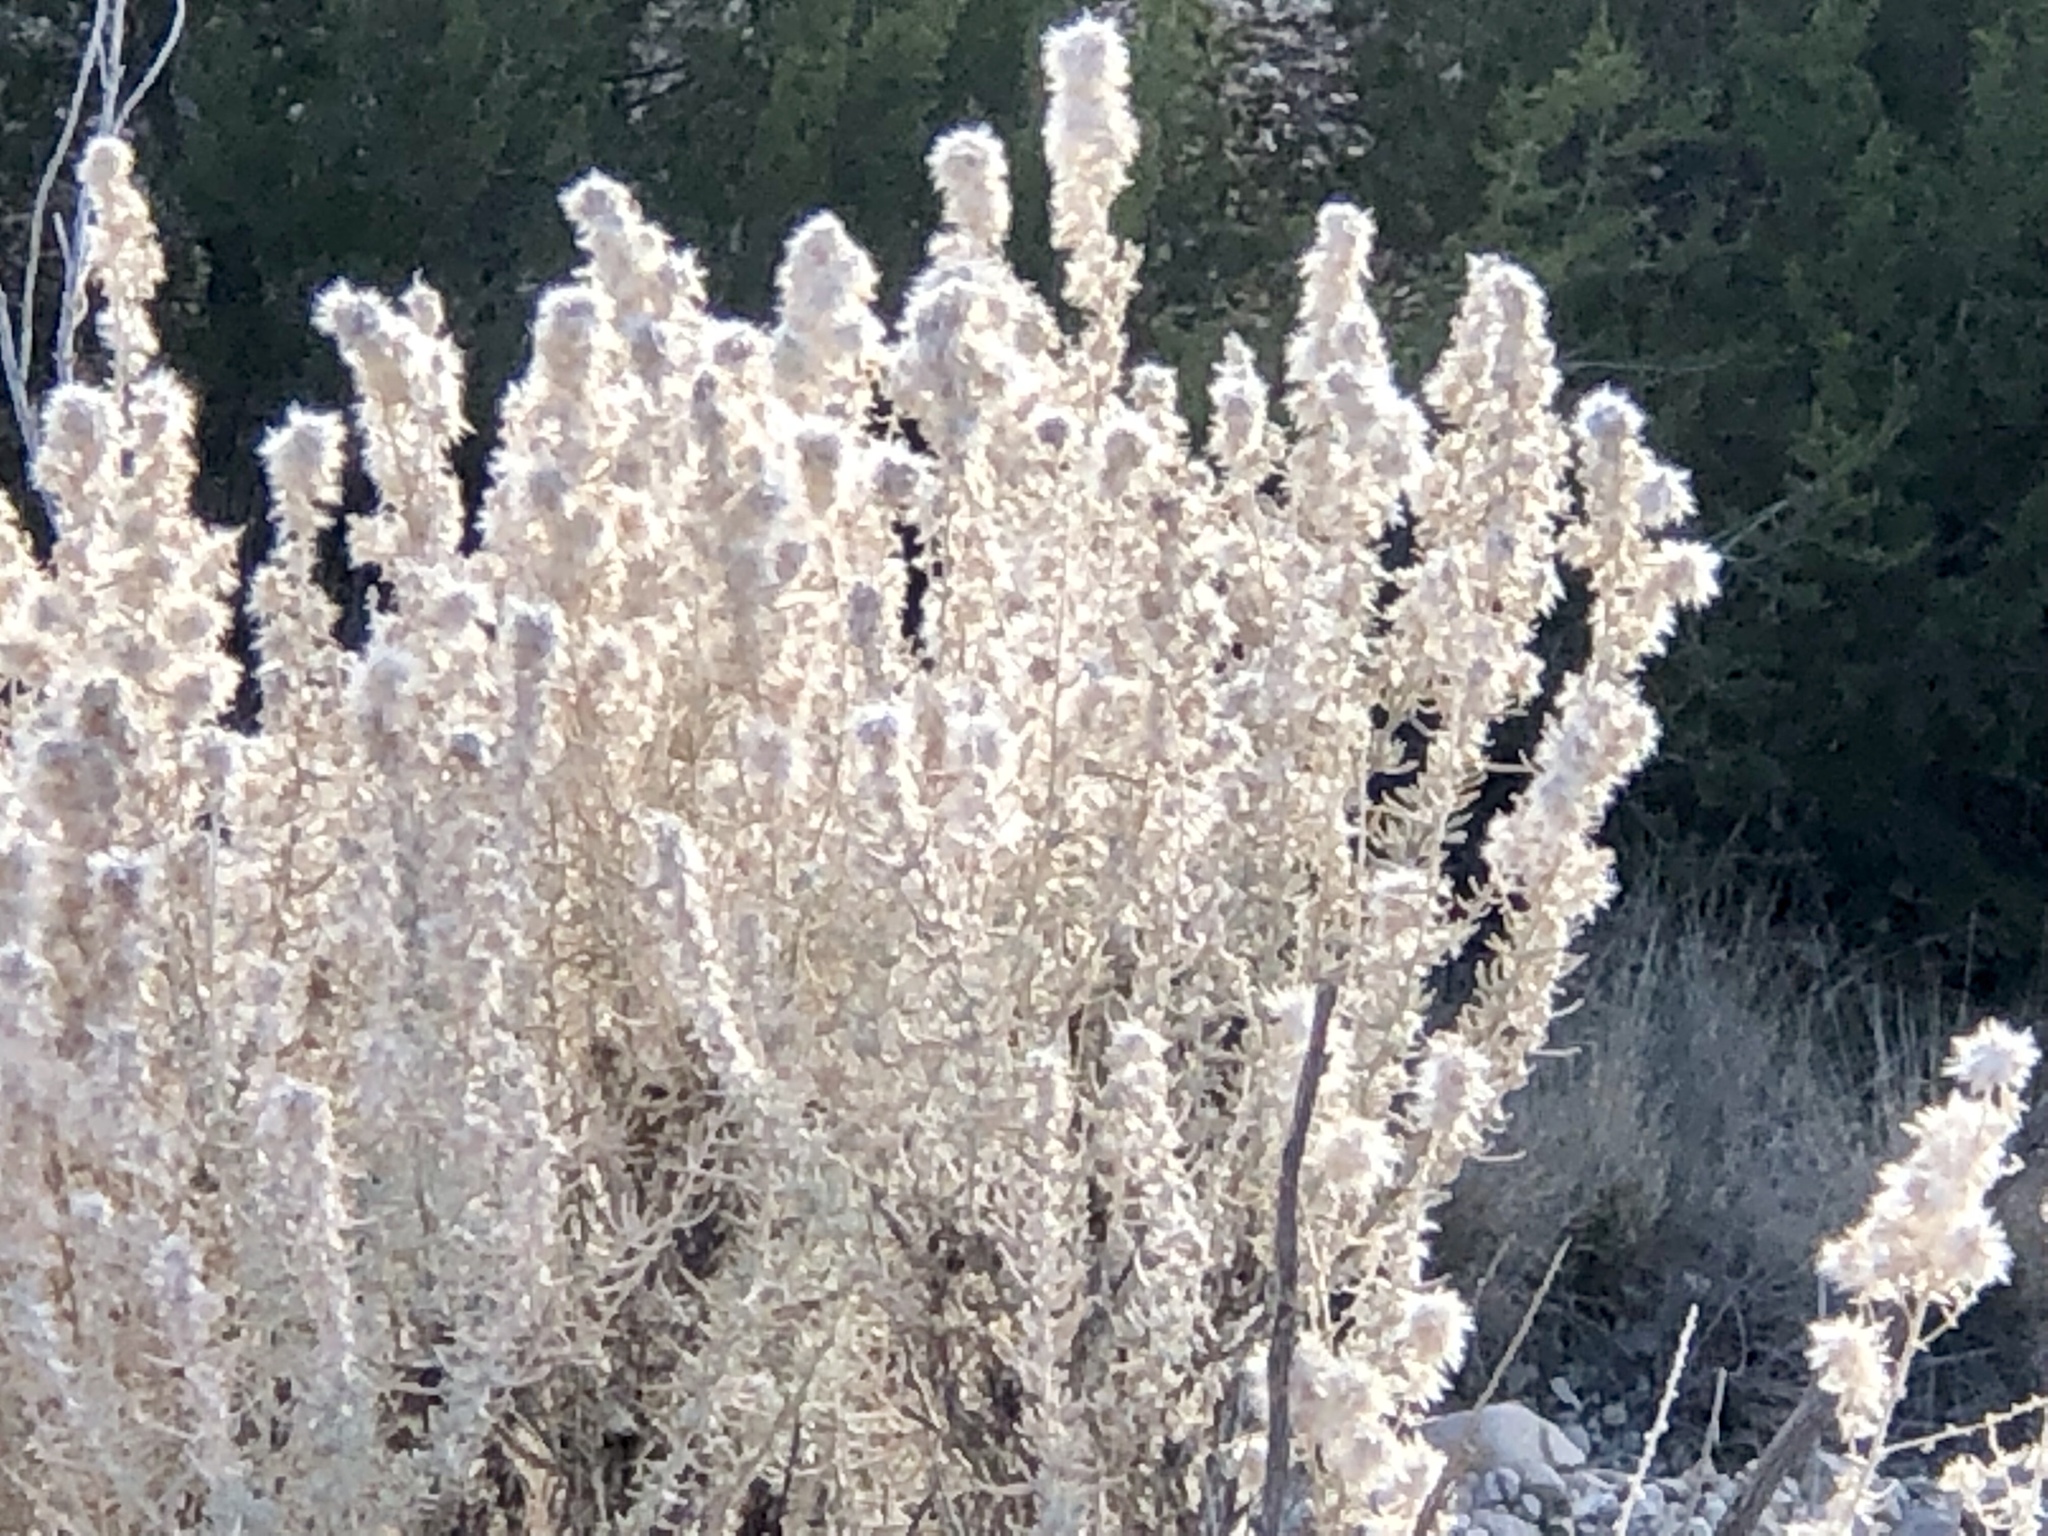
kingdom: Plantae
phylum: Tracheophyta
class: Magnoliopsida
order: Caryophyllales
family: Amaranthaceae
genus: Krascheninnikovia
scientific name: Krascheninnikovia lanata
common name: Winterfat
